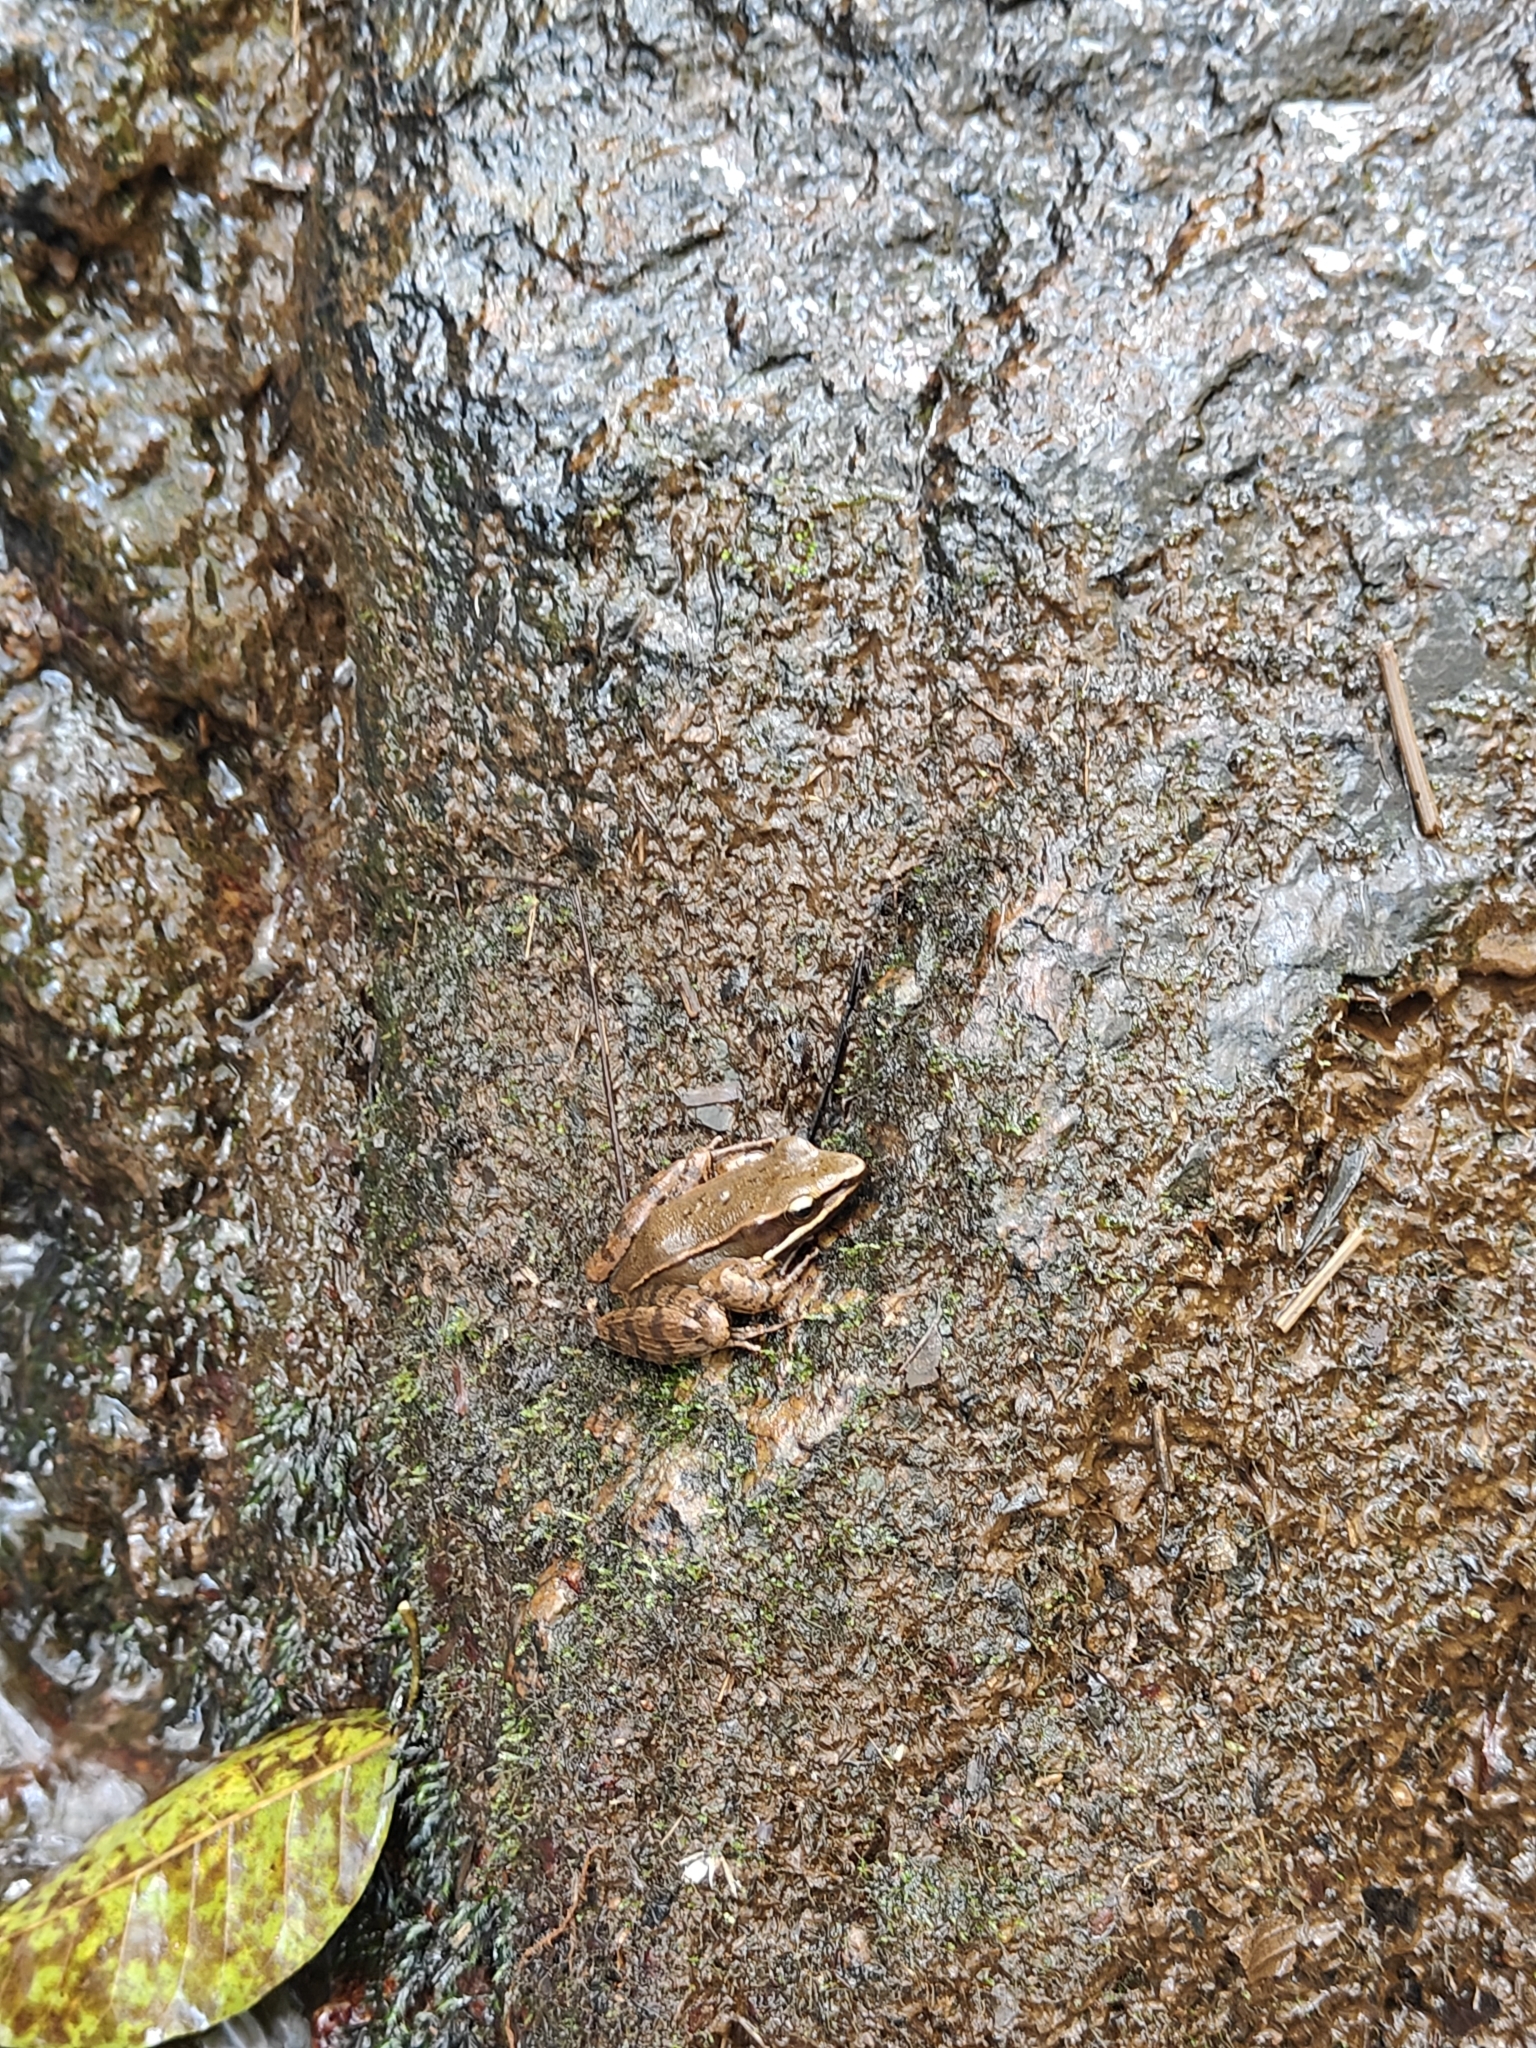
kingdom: Animalia
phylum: Chordata
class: Amphibia
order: Anura
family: Ranidae
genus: Indosylvirana
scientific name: Indosylvirana flavescens
